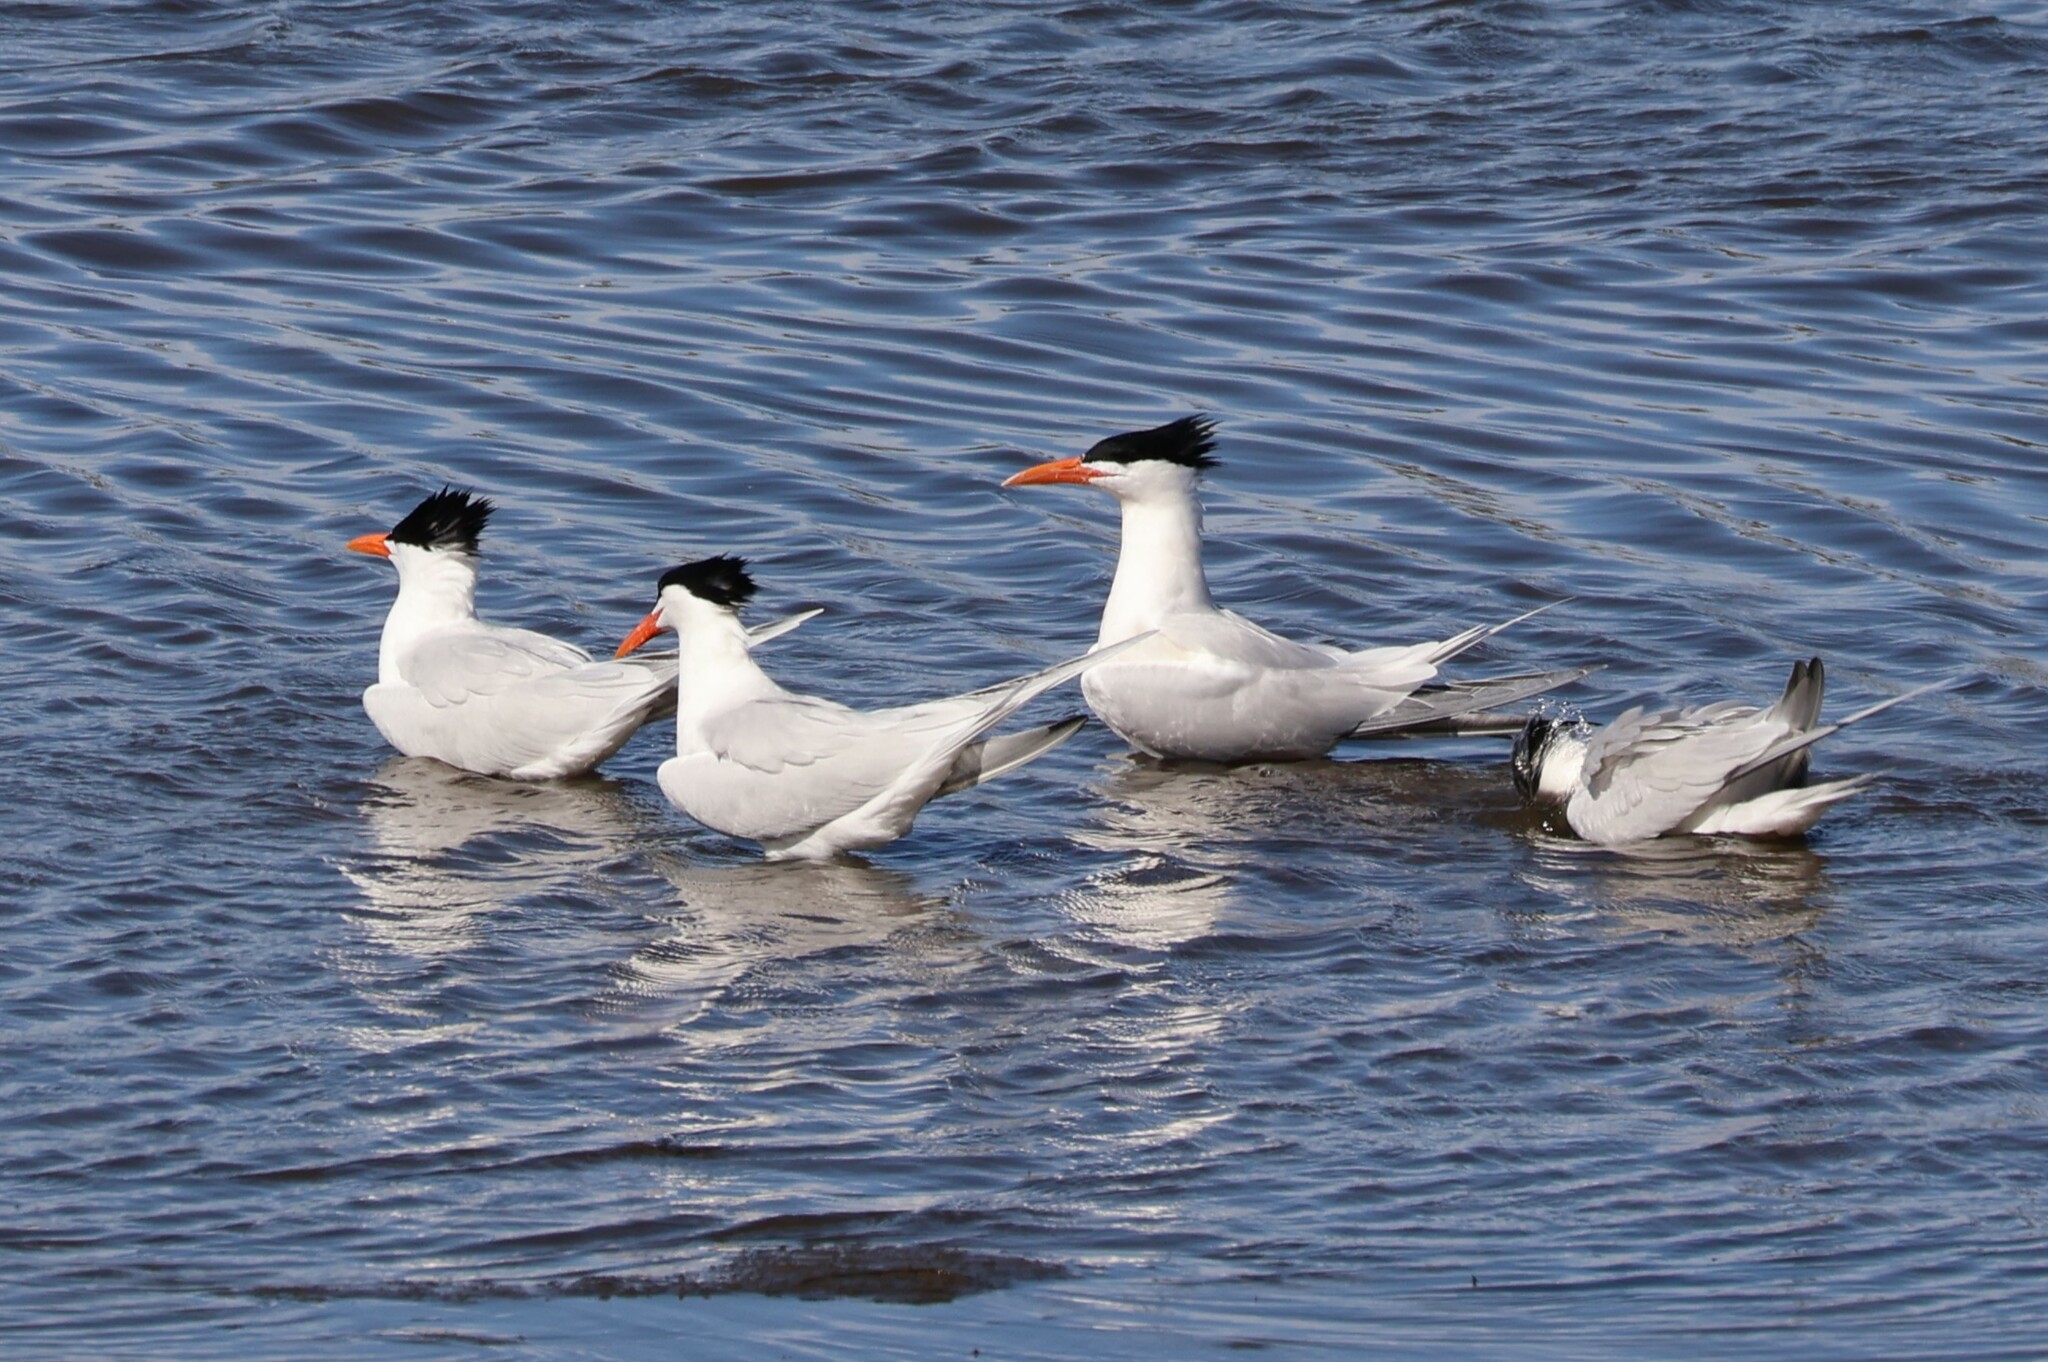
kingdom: Animalia
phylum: Chordata
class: Aves
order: Charadriiformes
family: Laridae
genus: Thalasseus
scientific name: Thalasseus maximus
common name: Royal tern
